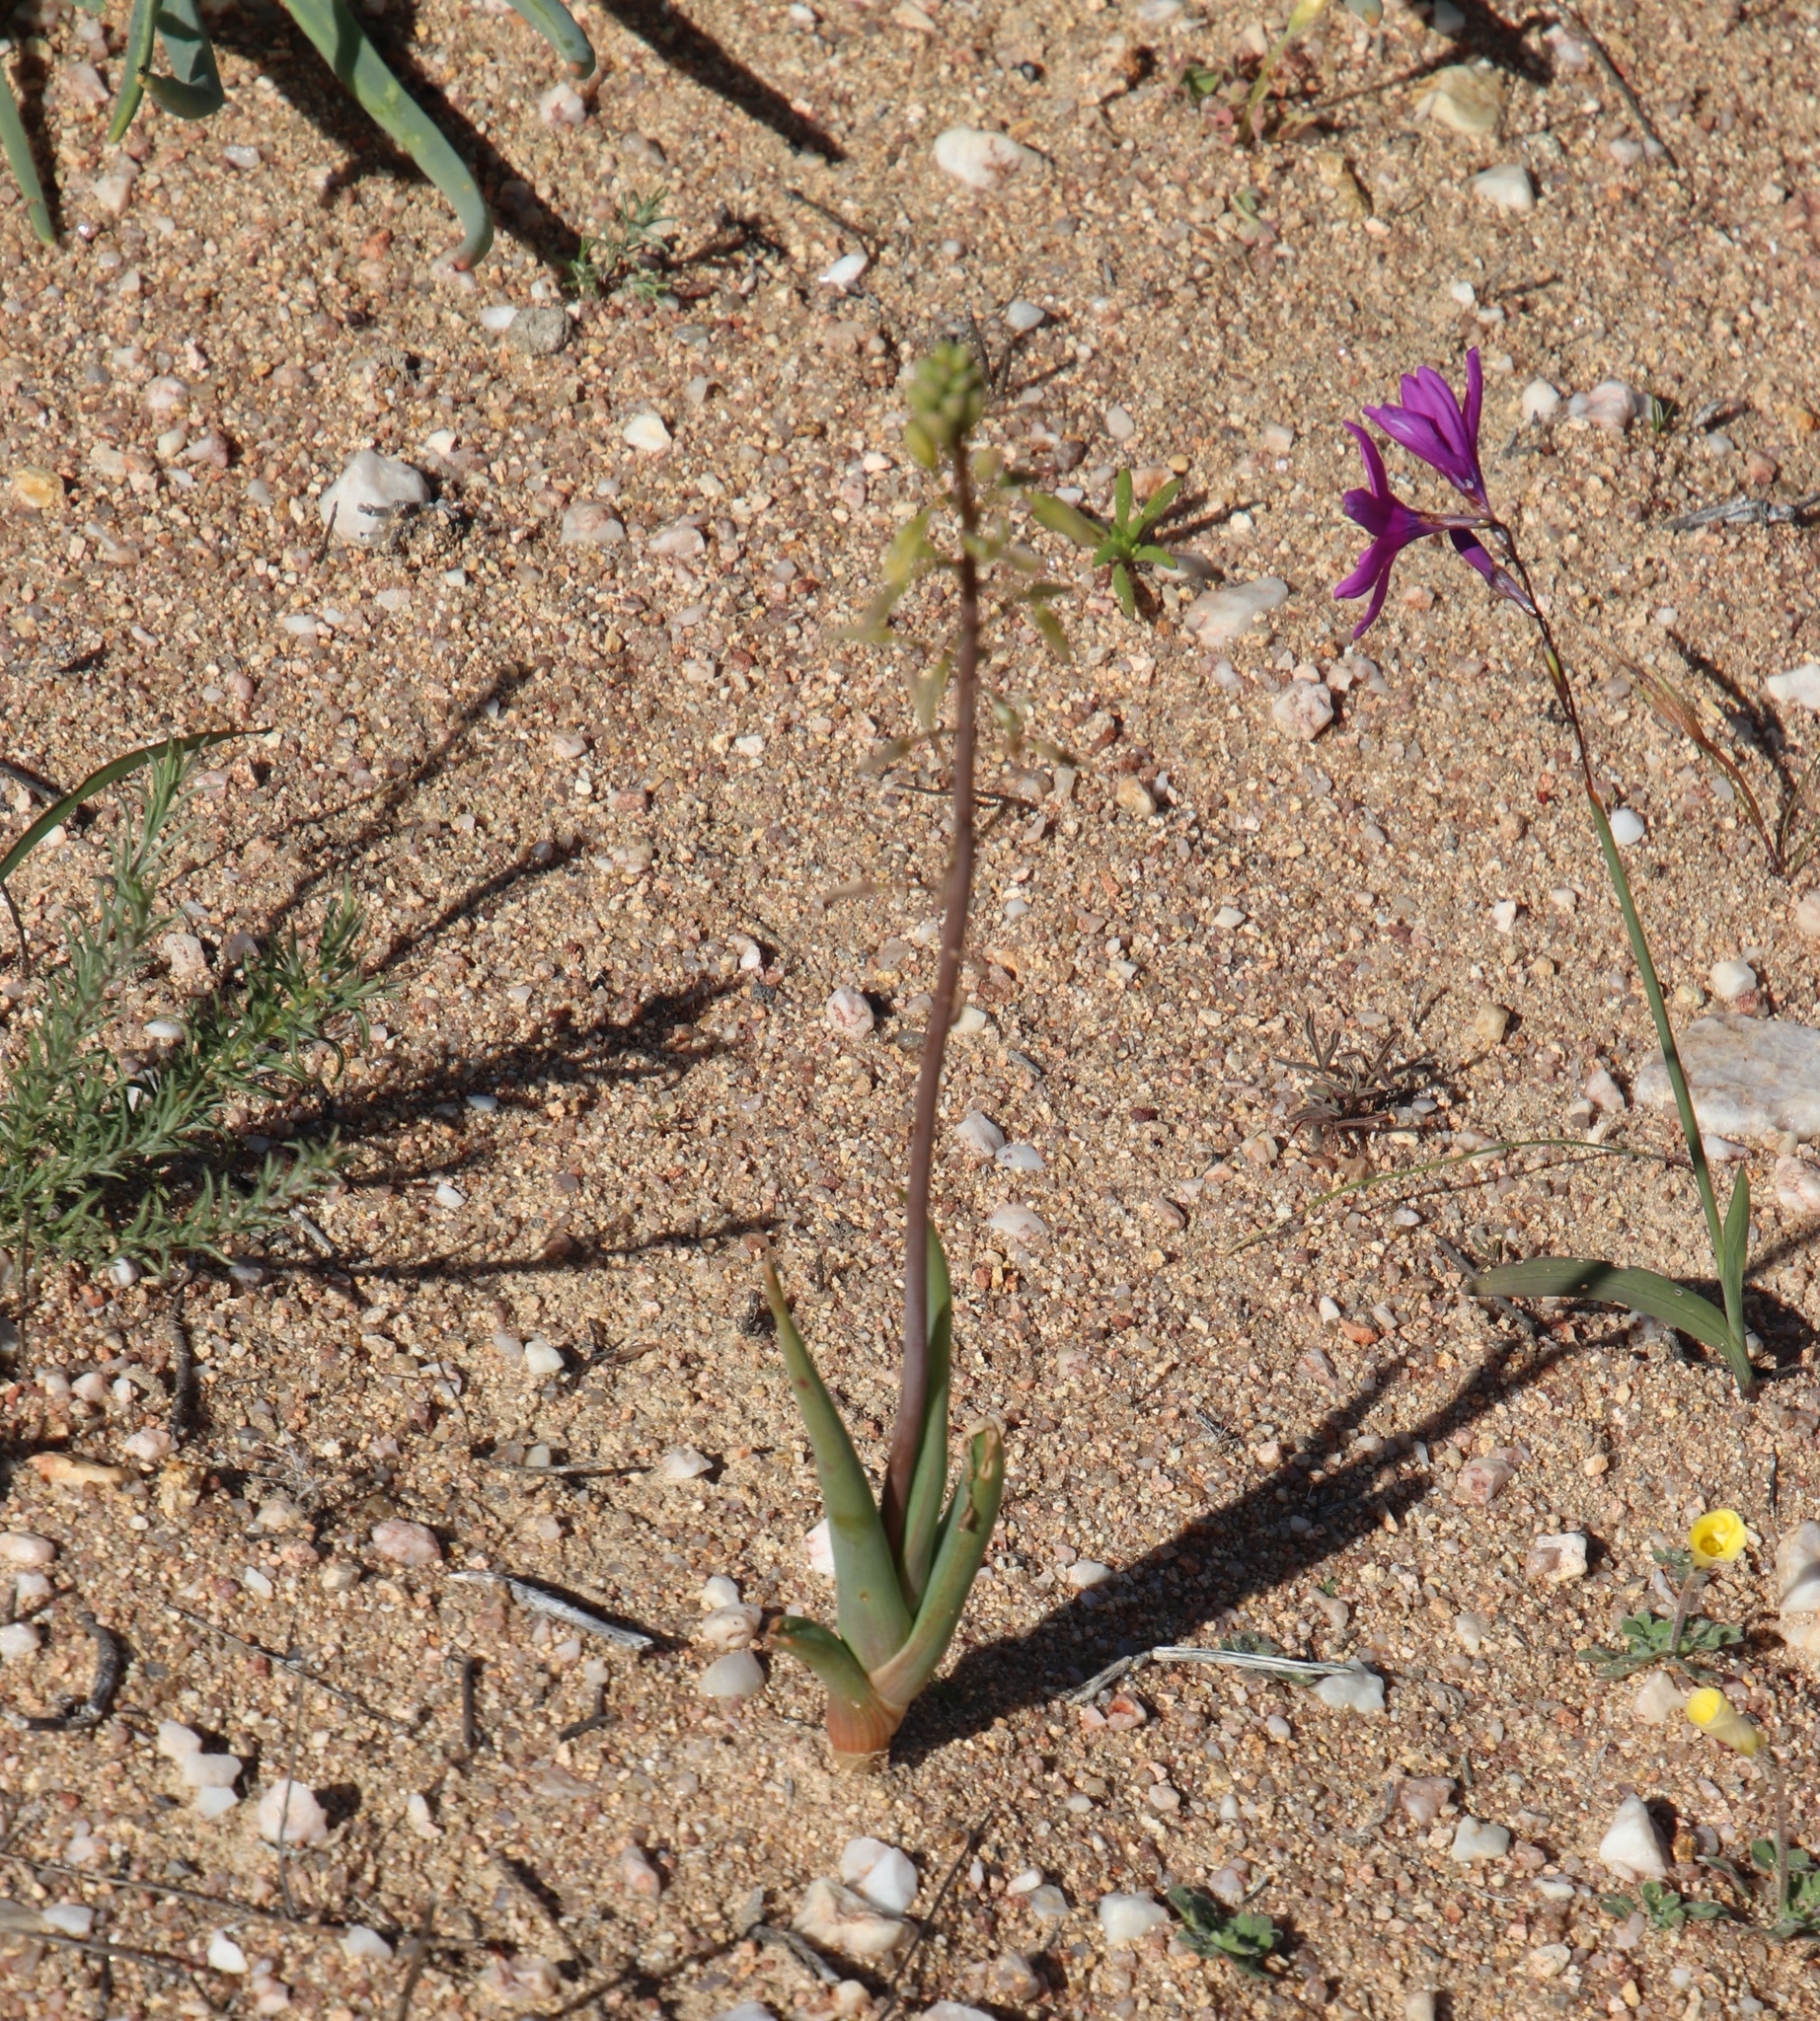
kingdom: Plantae
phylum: Tracheophyta
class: Liliopsida
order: Asparagales
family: Asphodelaceae
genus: Bulbine
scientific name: Bulbine praemorsa
